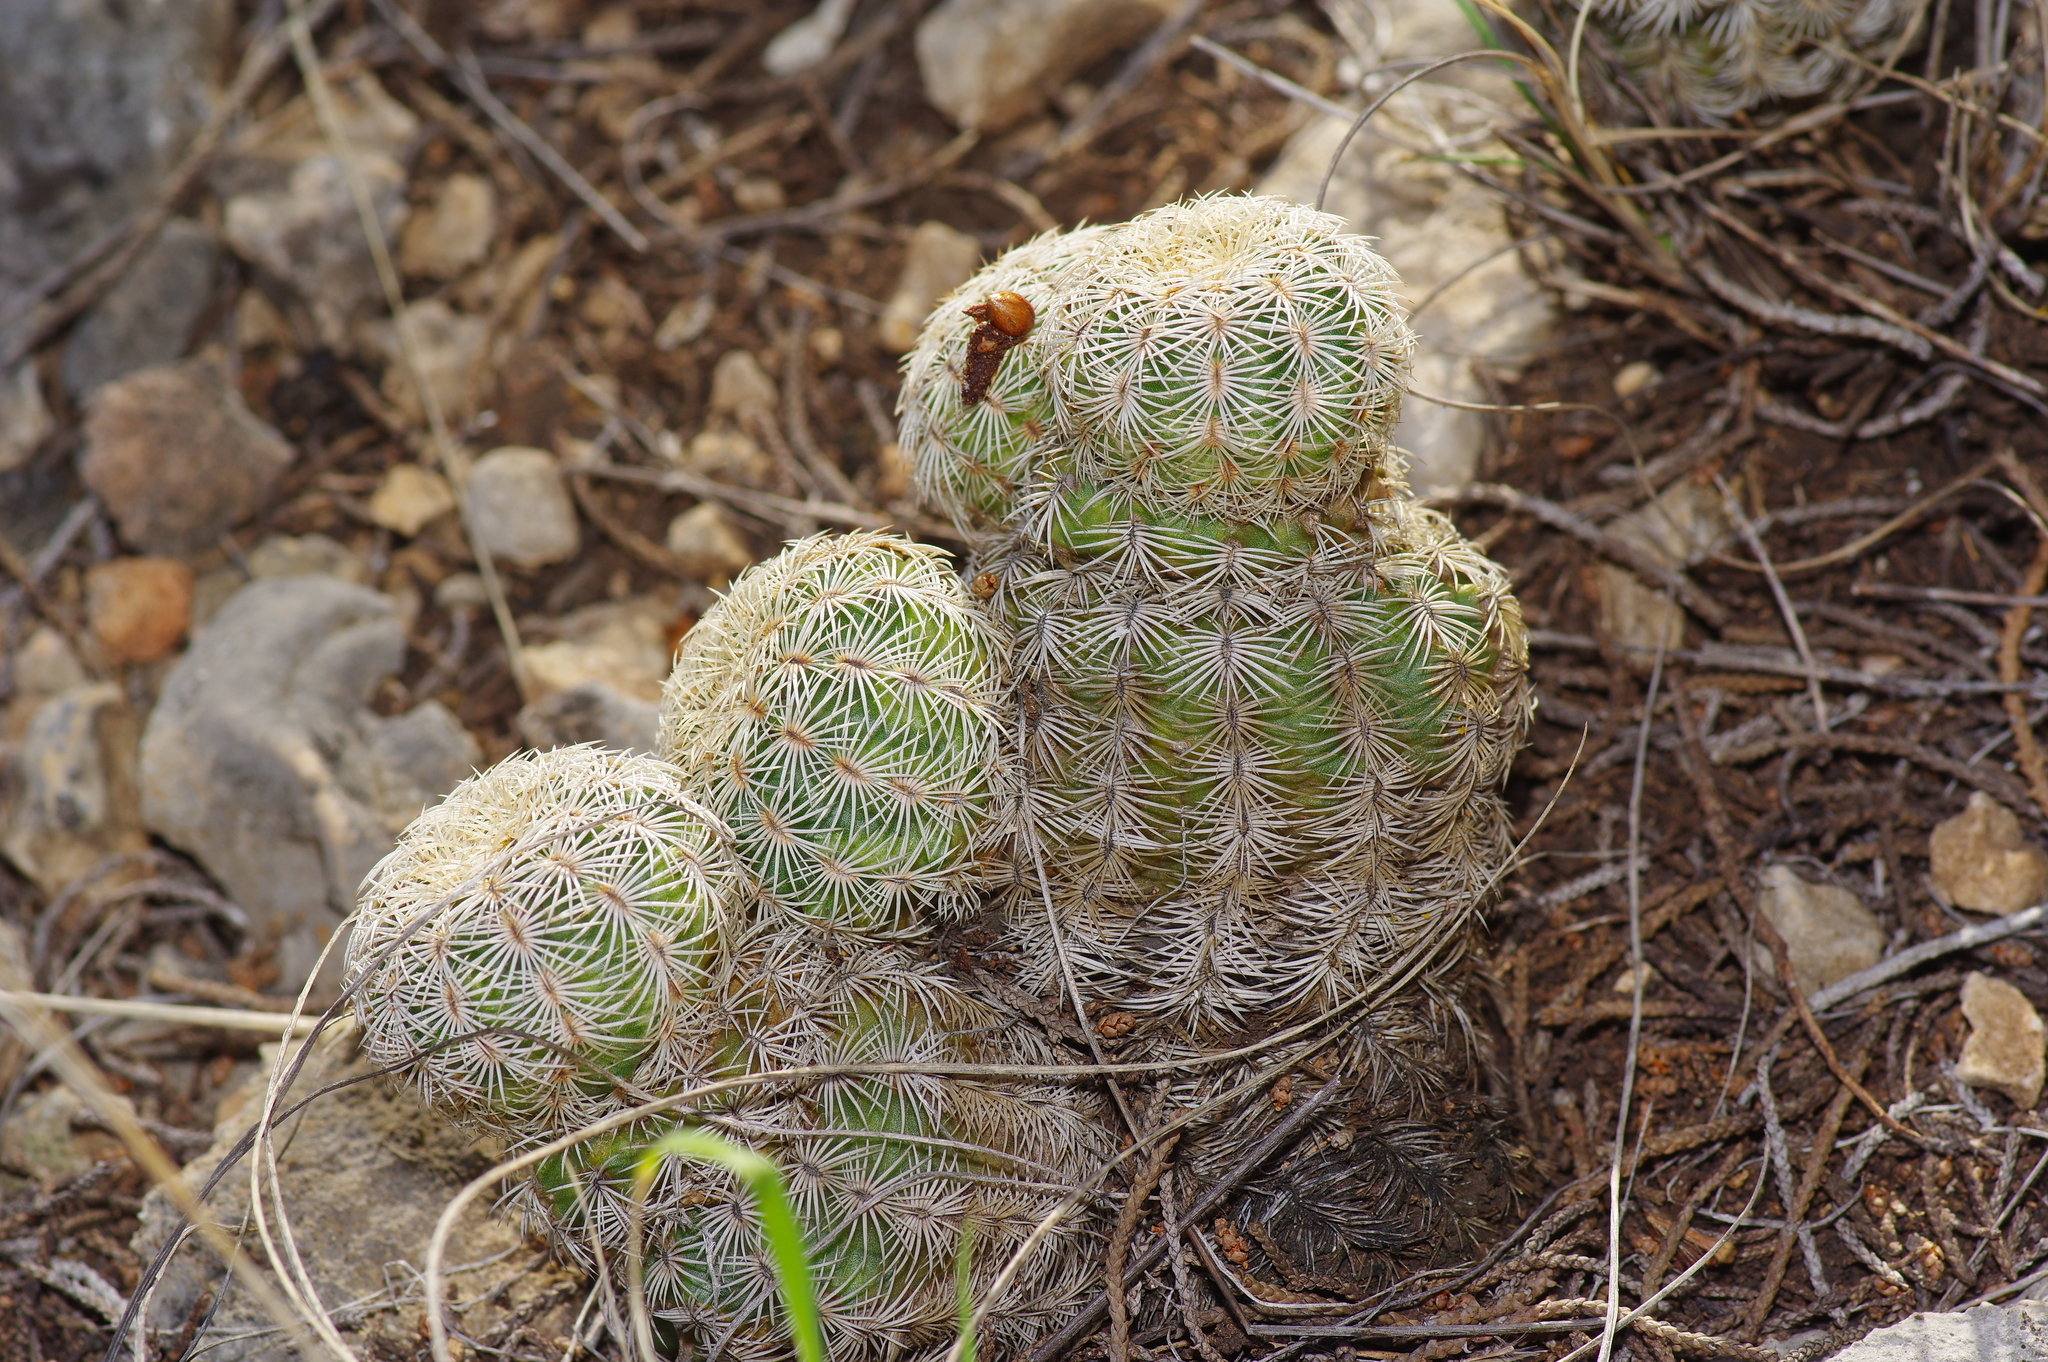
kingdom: Plantae
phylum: Tracheophyta
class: Magnoliopsida
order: Caryophyllales
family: Cactaceae
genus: Echinocereus
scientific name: Echinocereus reichenbachii
